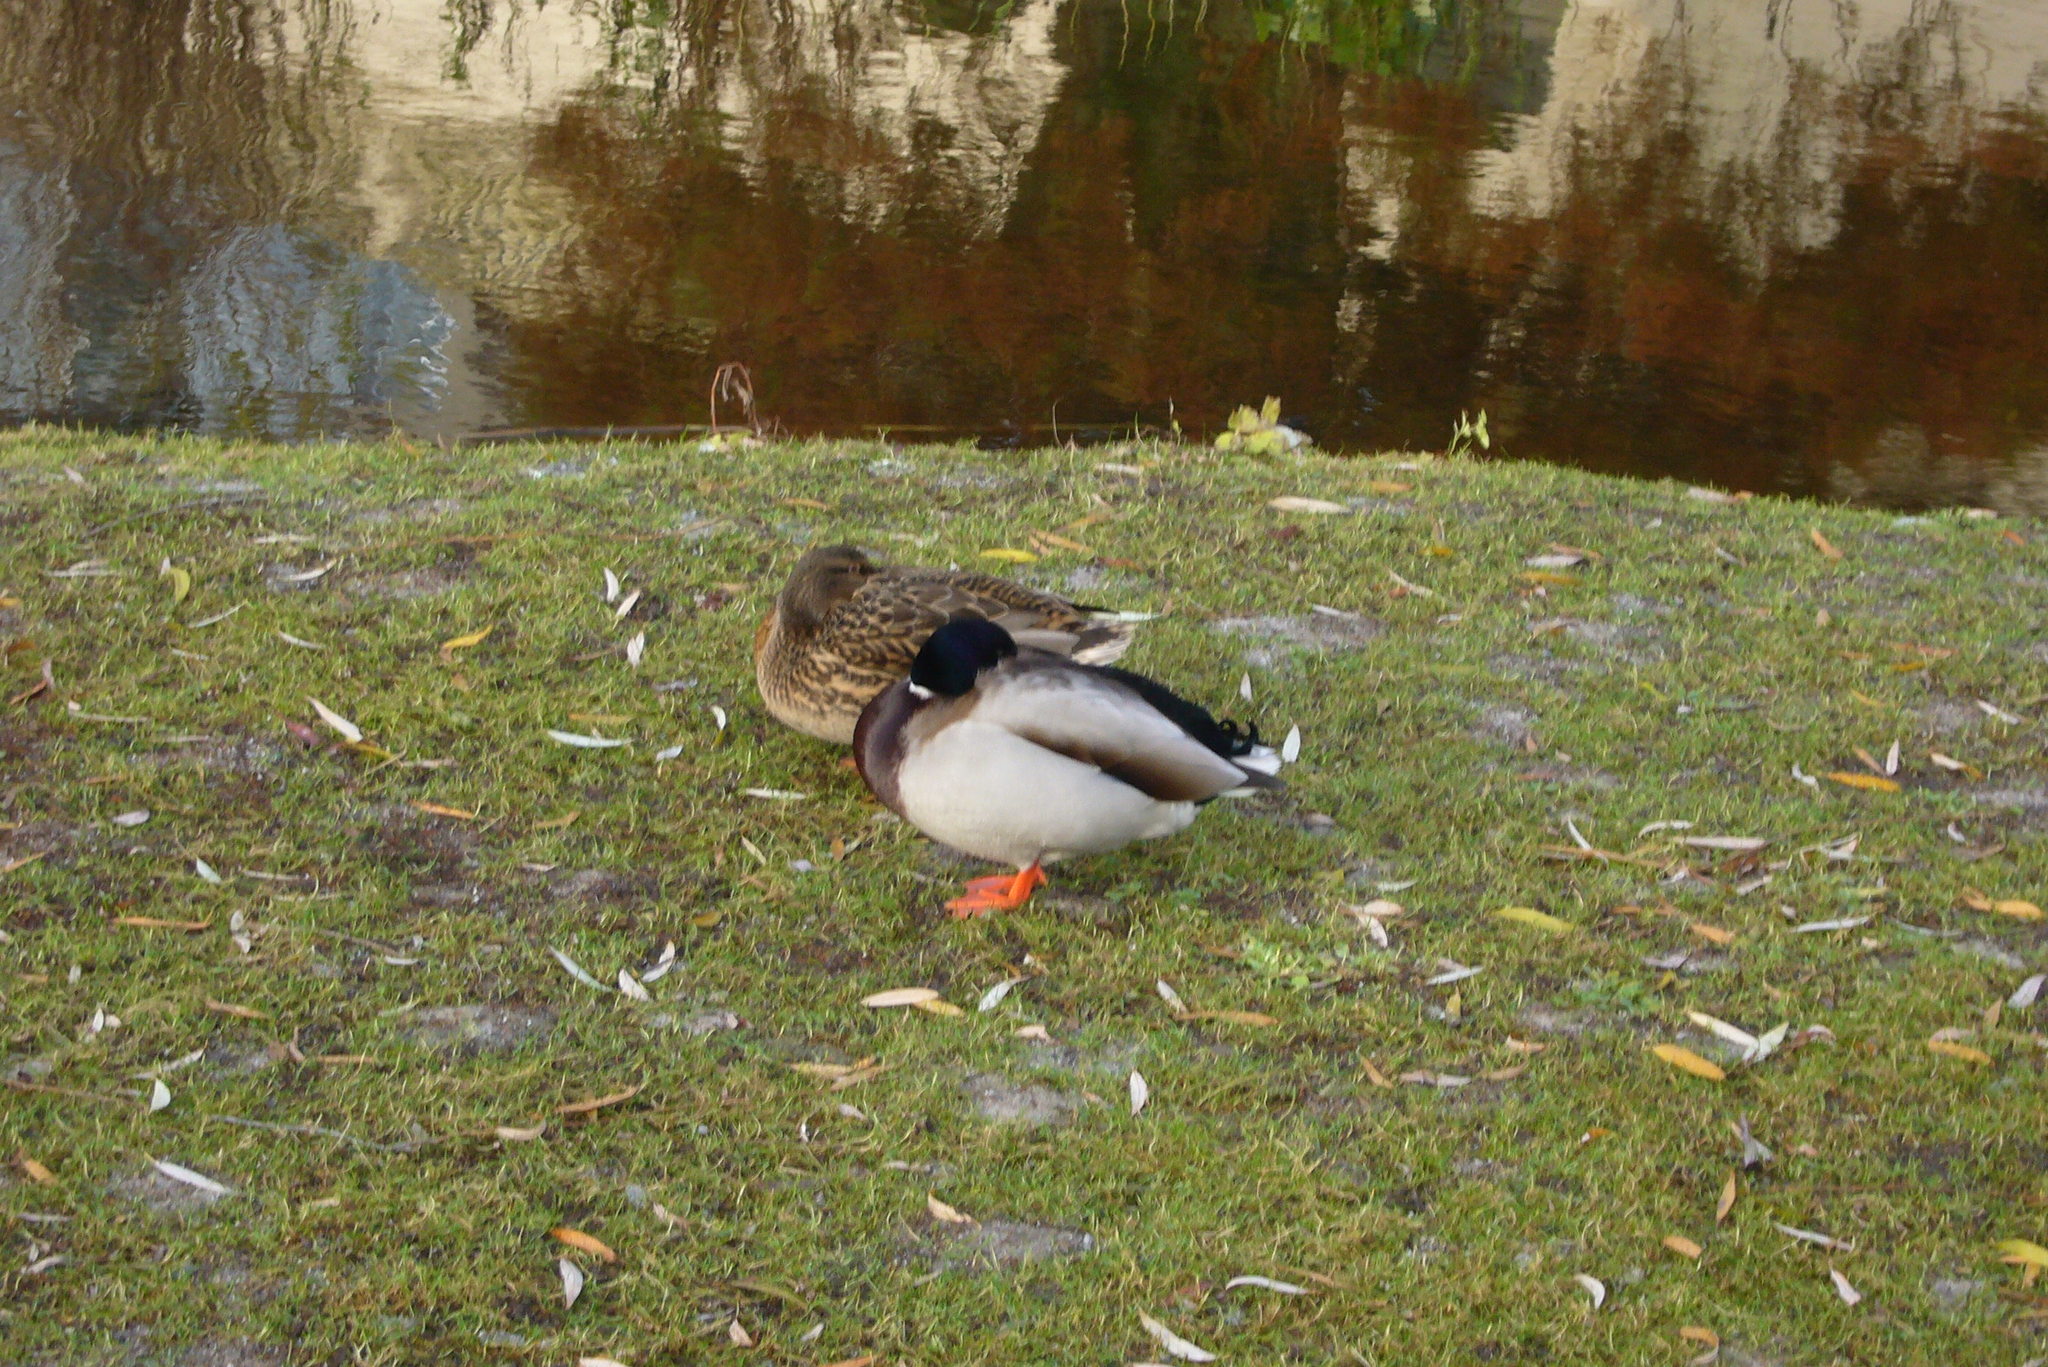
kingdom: Animalia
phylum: Chordata
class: Aves
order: Anseriformes
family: Anatidae
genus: Anas
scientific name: Anas platyrhynchos
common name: Mallard
